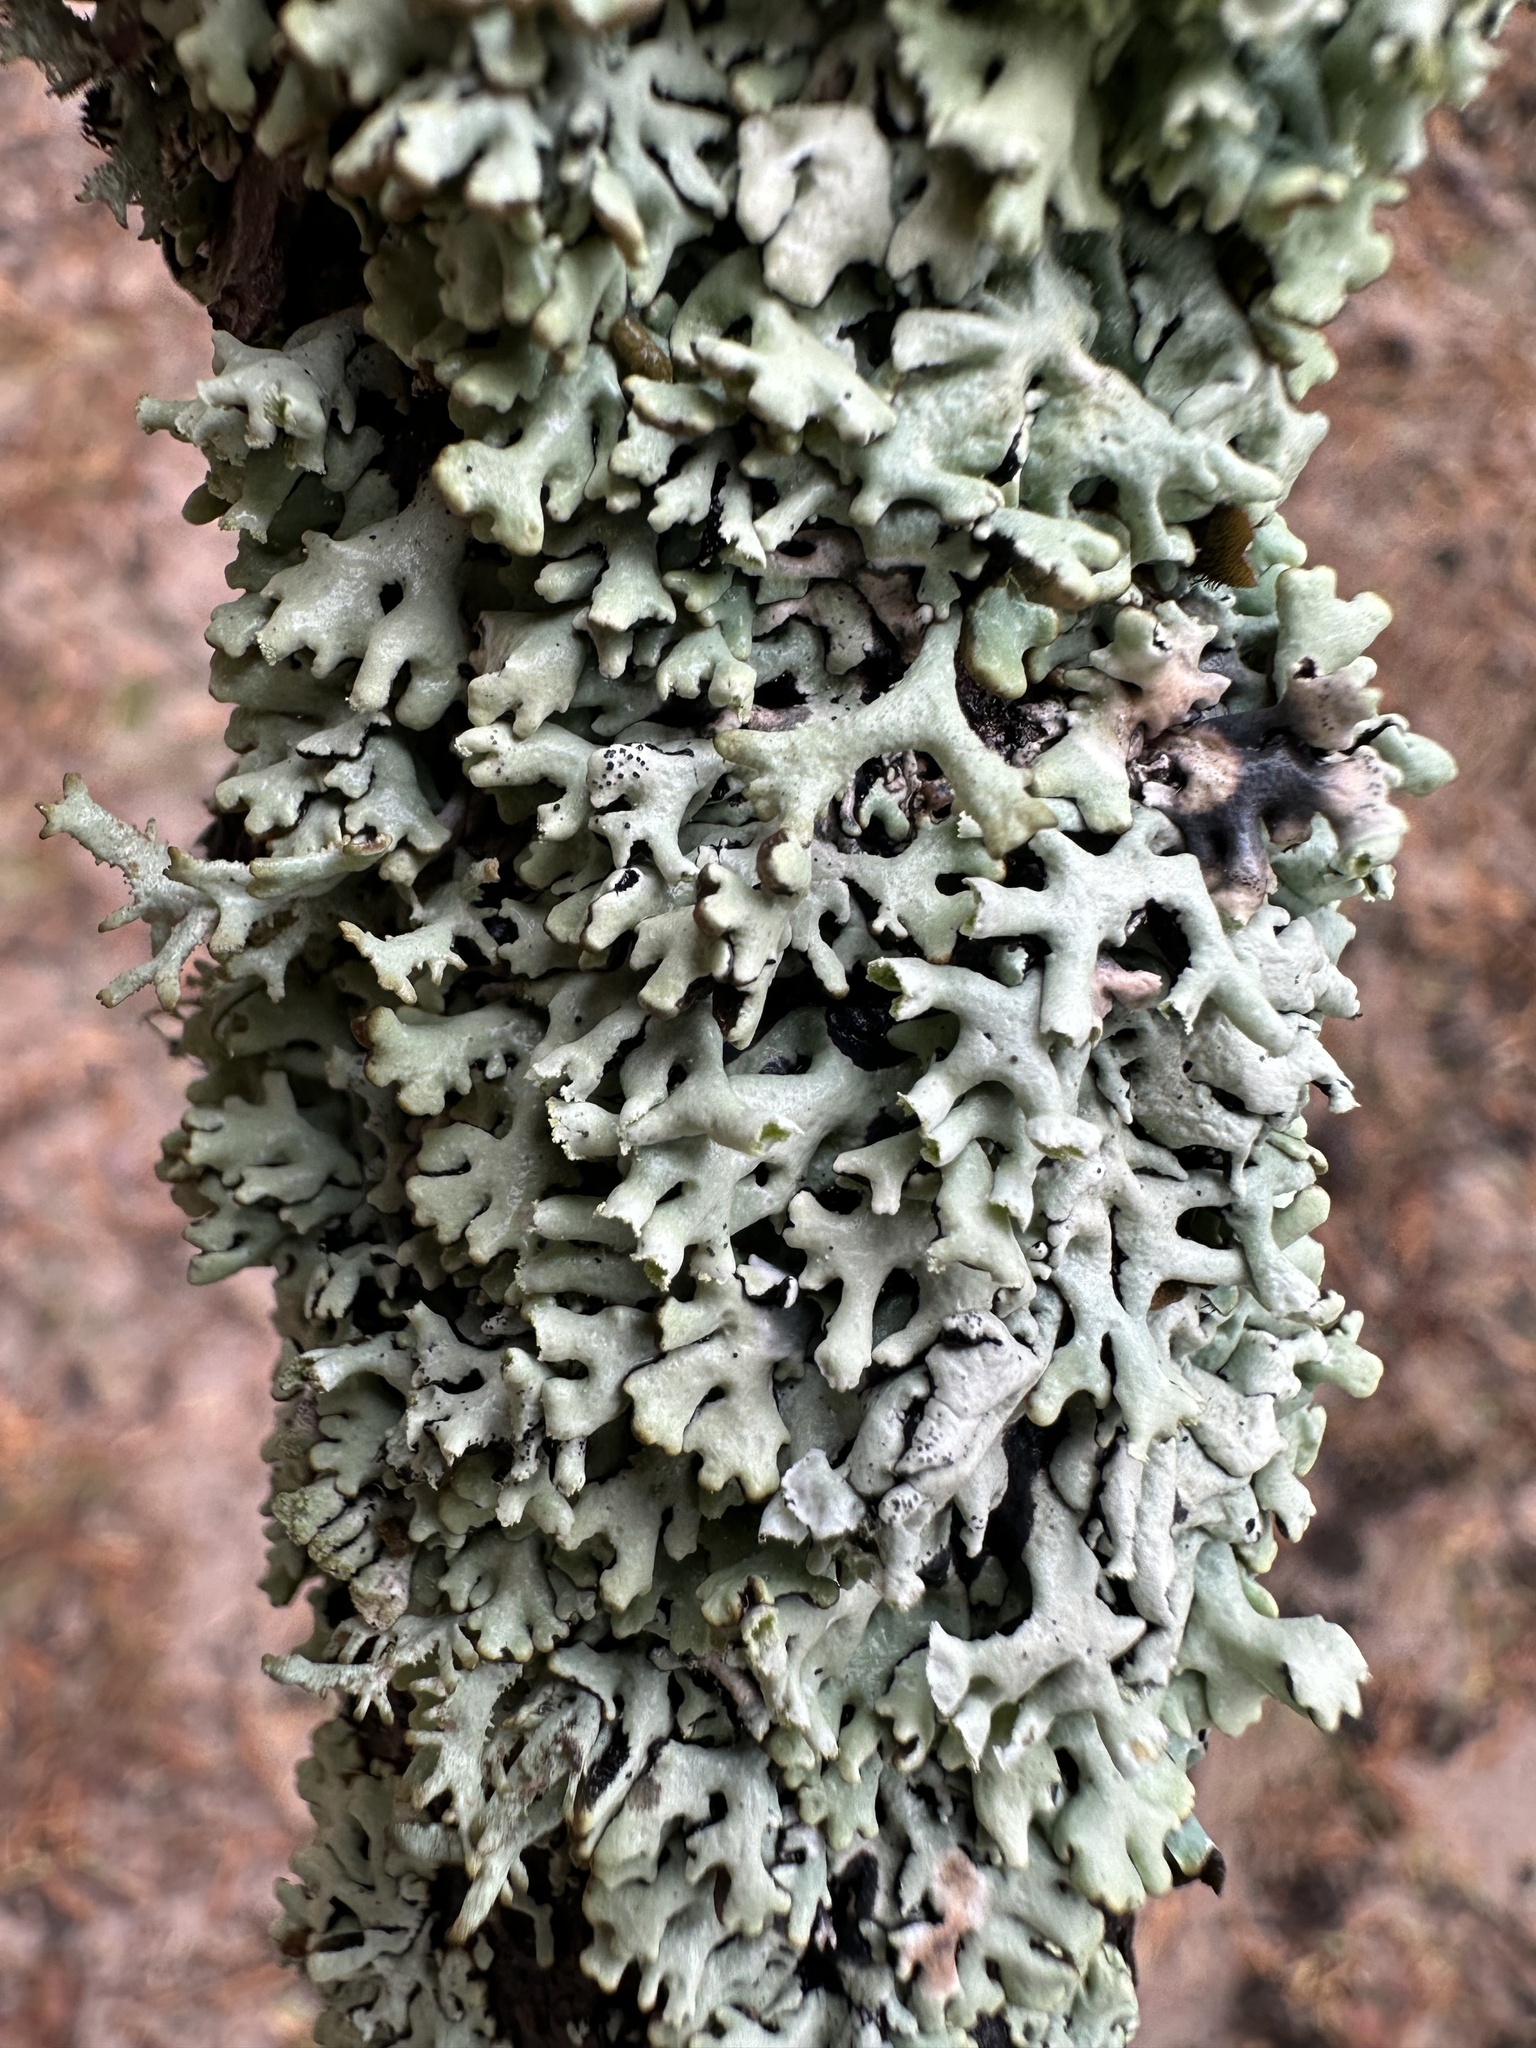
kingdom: Fungi
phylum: Ascomycota
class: Lecanoromycetes
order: Lecanorales
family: Parmeliaceae
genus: Hypogymnia
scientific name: Hypogymnia physodes
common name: Dark crottle
